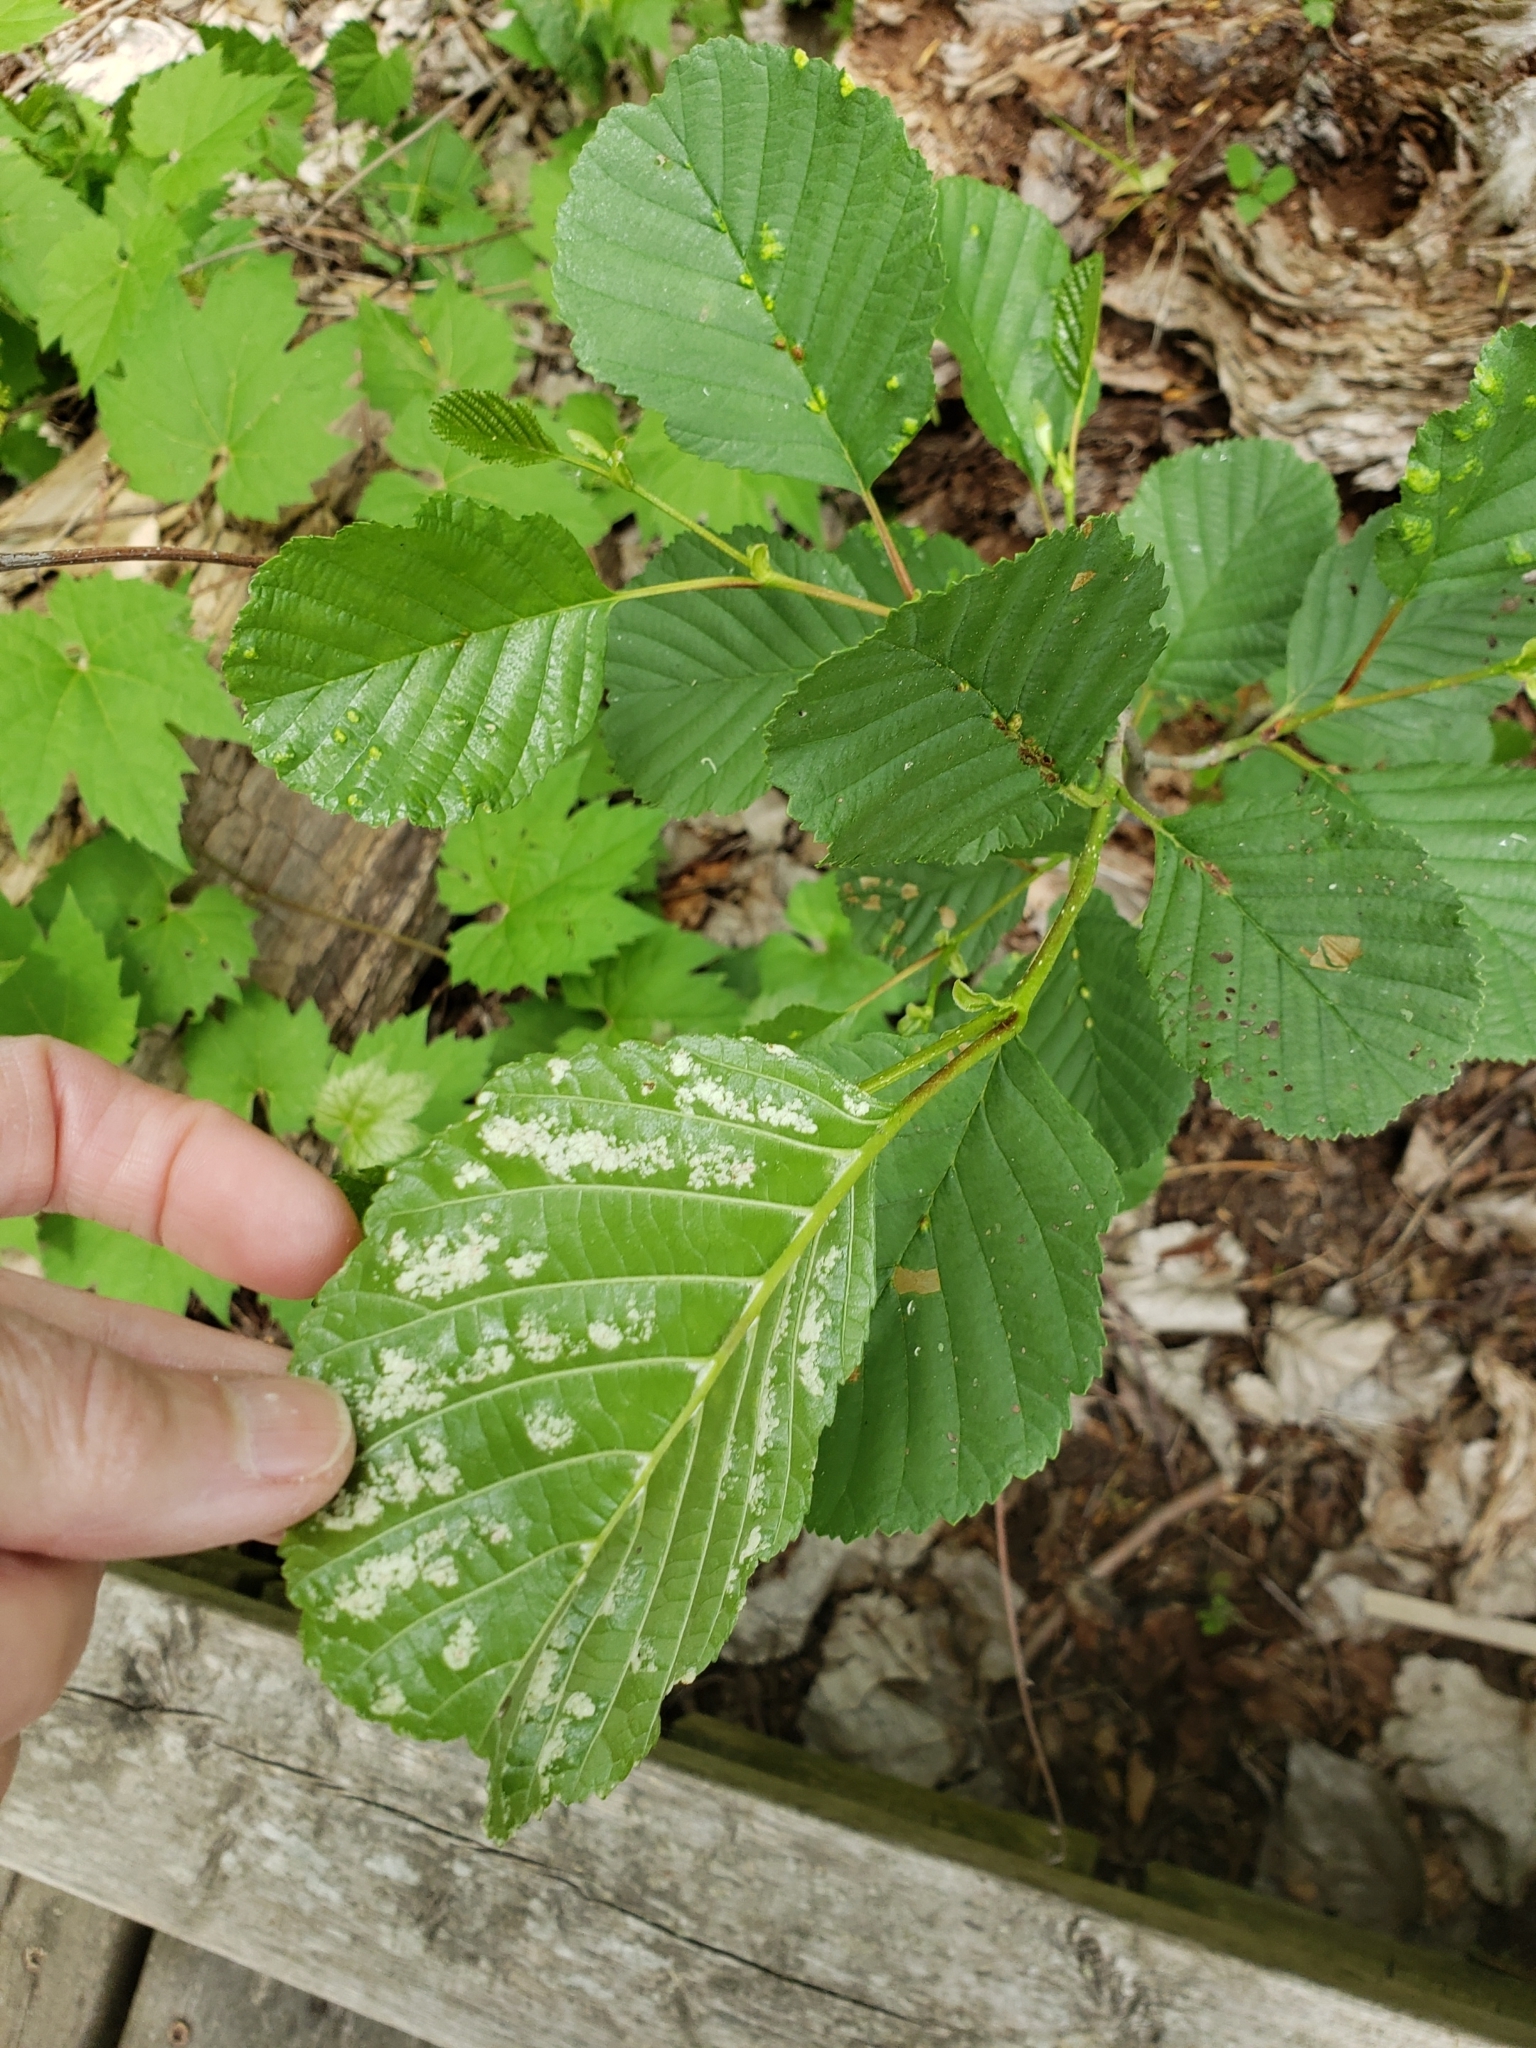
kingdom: Animalia
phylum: Arthropoda
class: Arachnida
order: Trombidiformes
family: Eriophyidae
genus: Acalitus
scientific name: Acalitus brevitarsus
